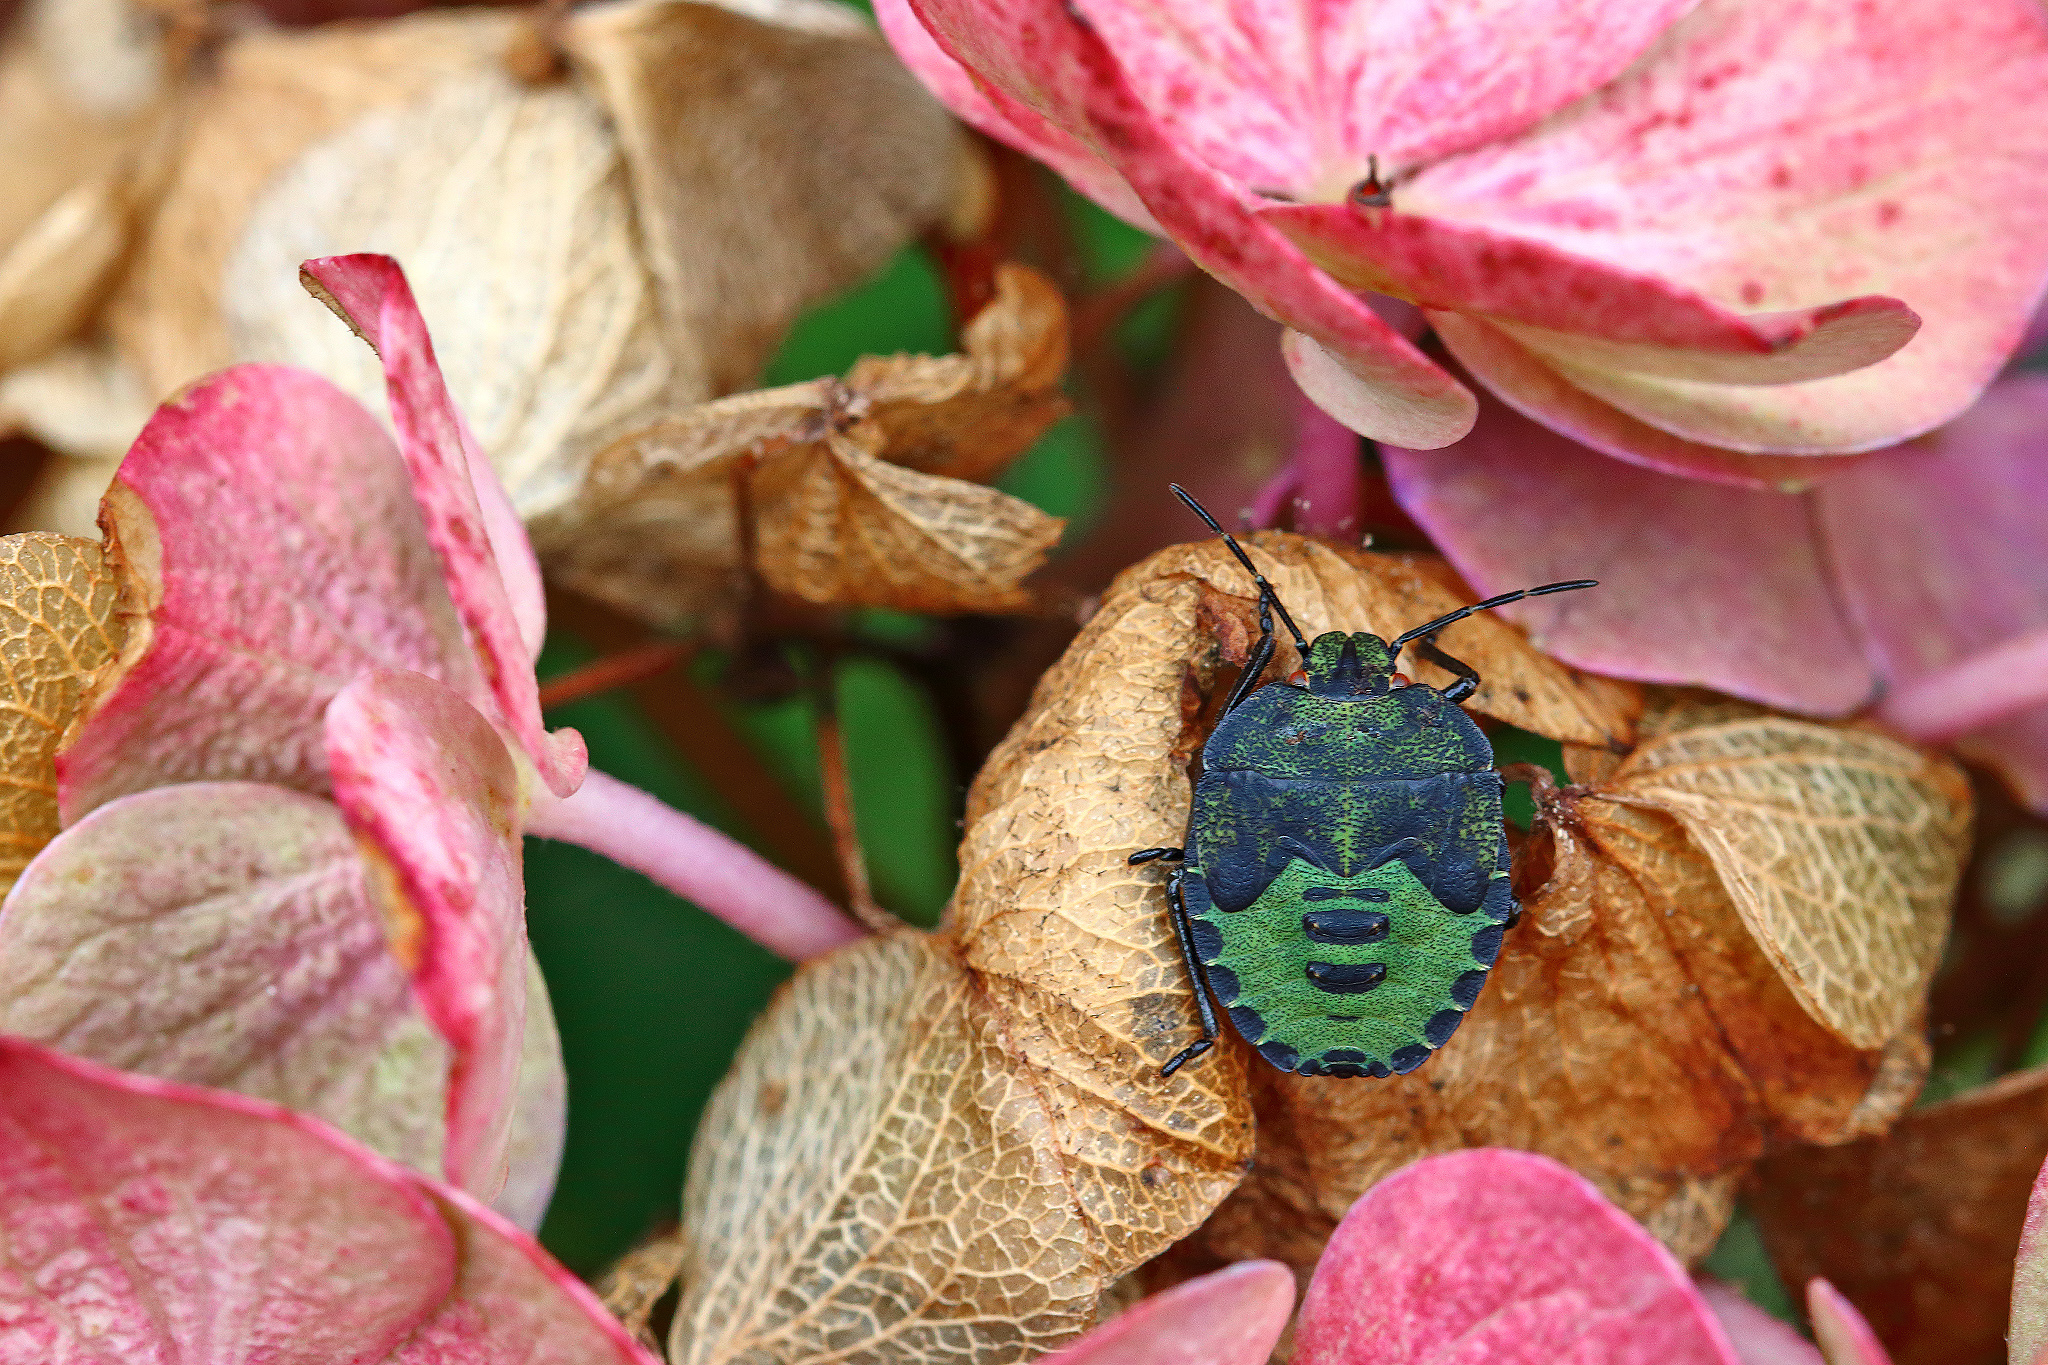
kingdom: Animalia
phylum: Arthropoda
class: Insecta
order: Hemiptera
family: Pentatomidae
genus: Palomena
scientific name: Palomena prasina
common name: Green shieldbug
